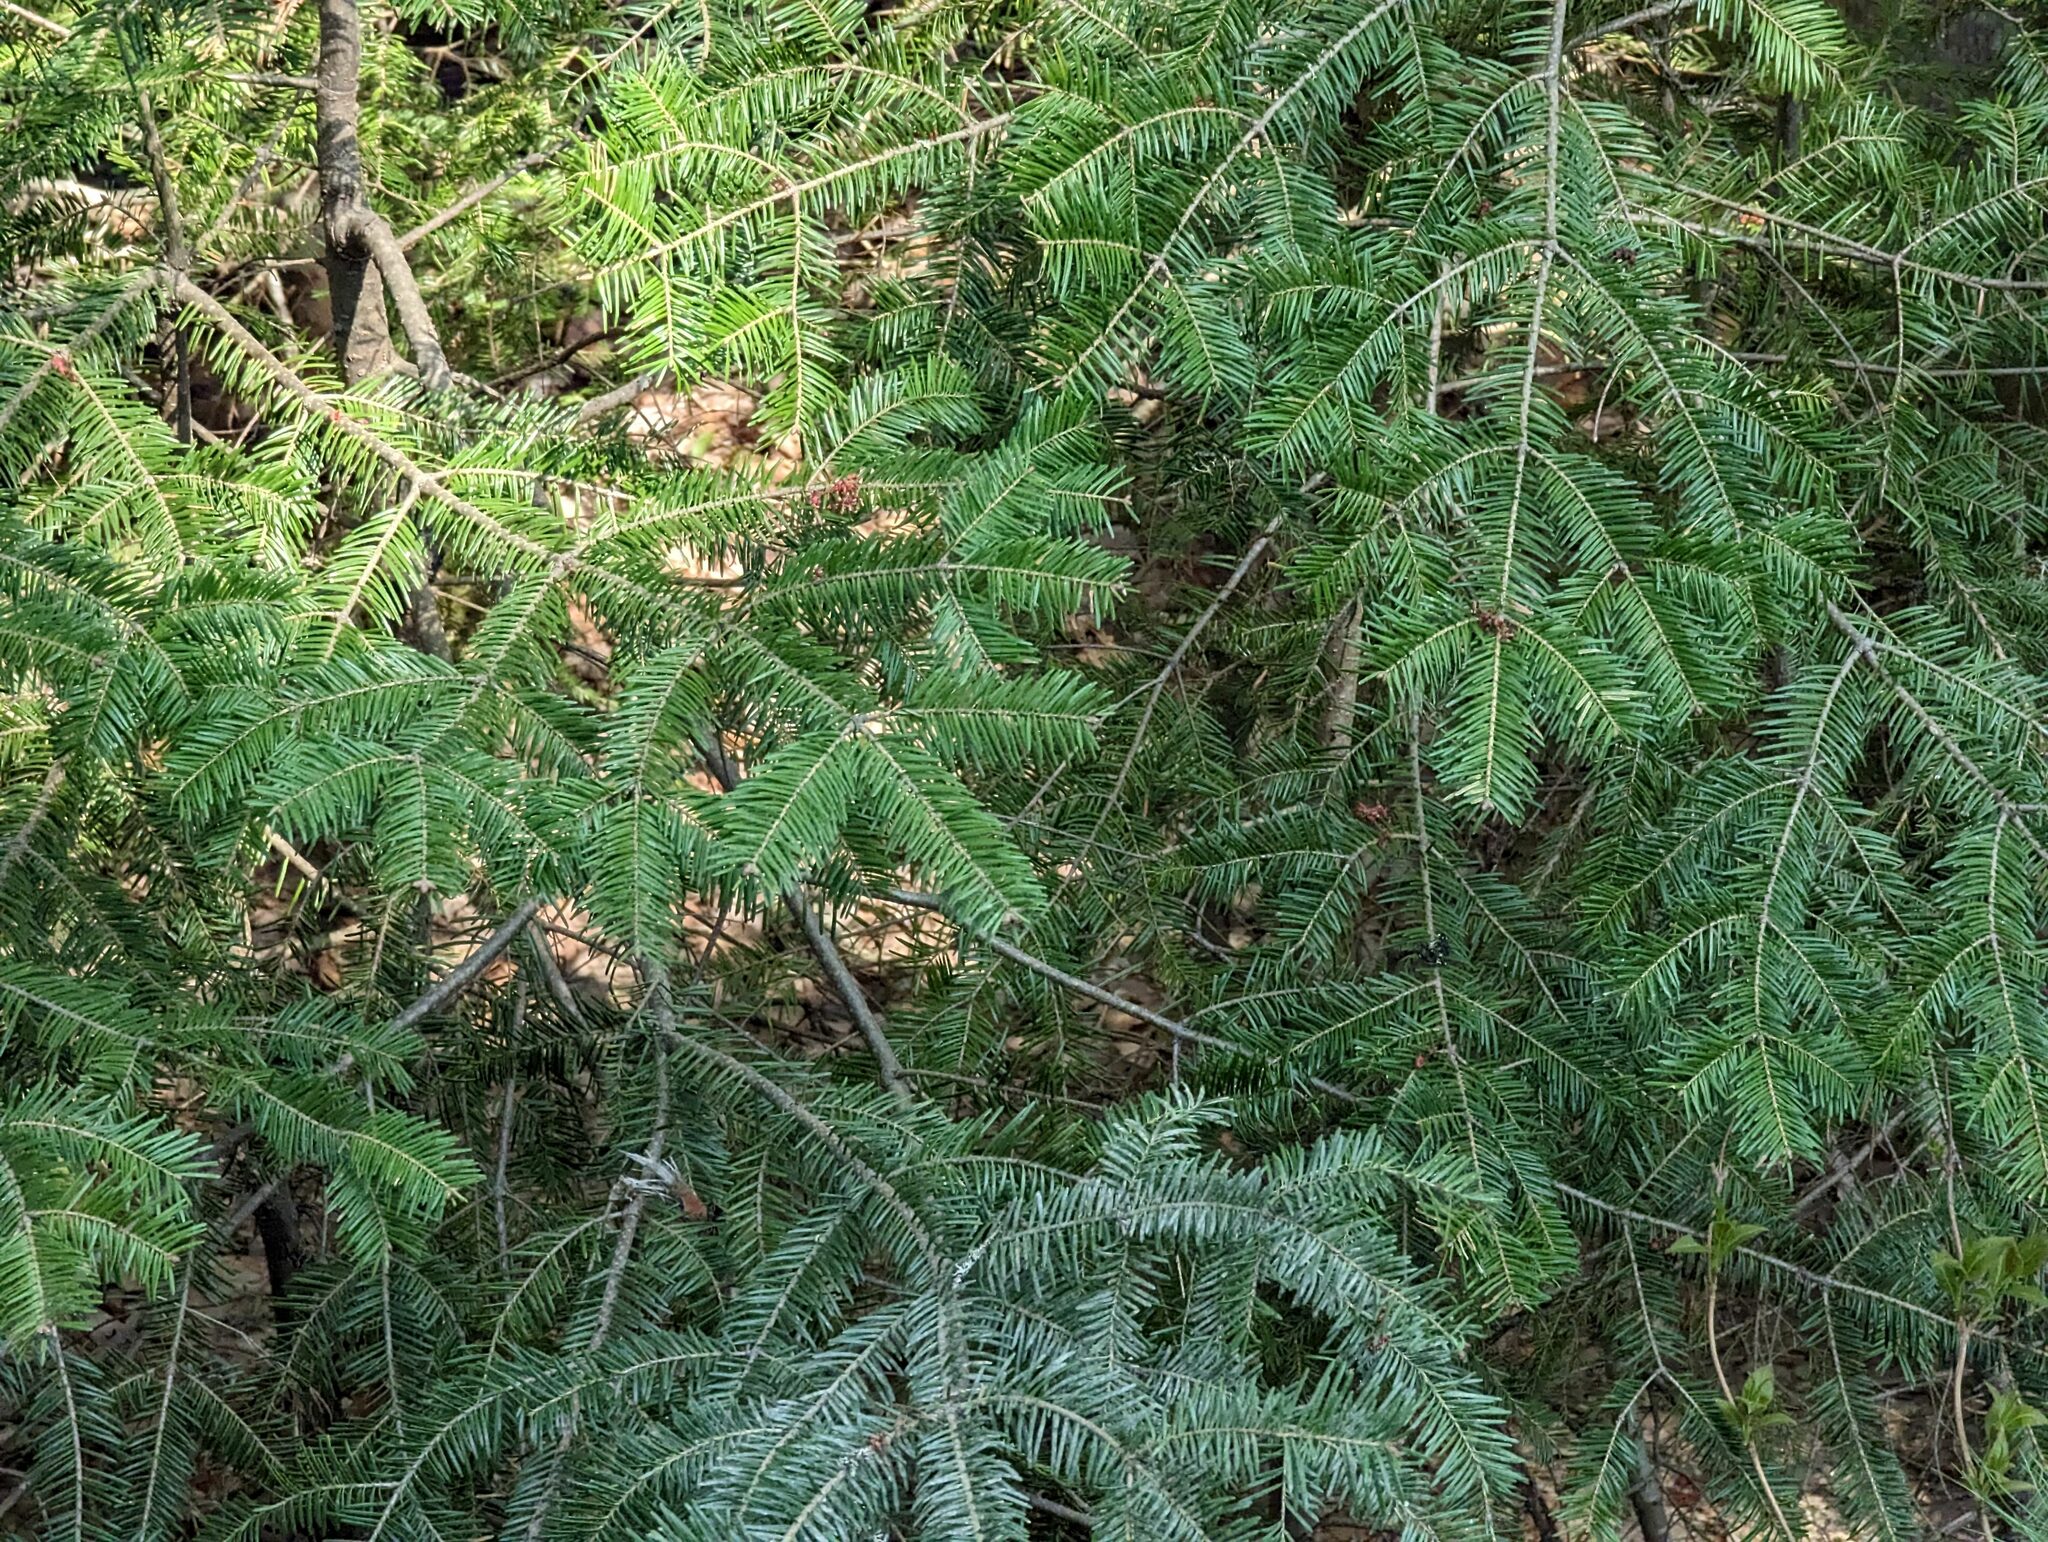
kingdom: Plantae
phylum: Tracheophyta
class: Pinopsida
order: Pinales
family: Pinaceae
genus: Abies
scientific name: Abies balsamea
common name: Balsam fir
